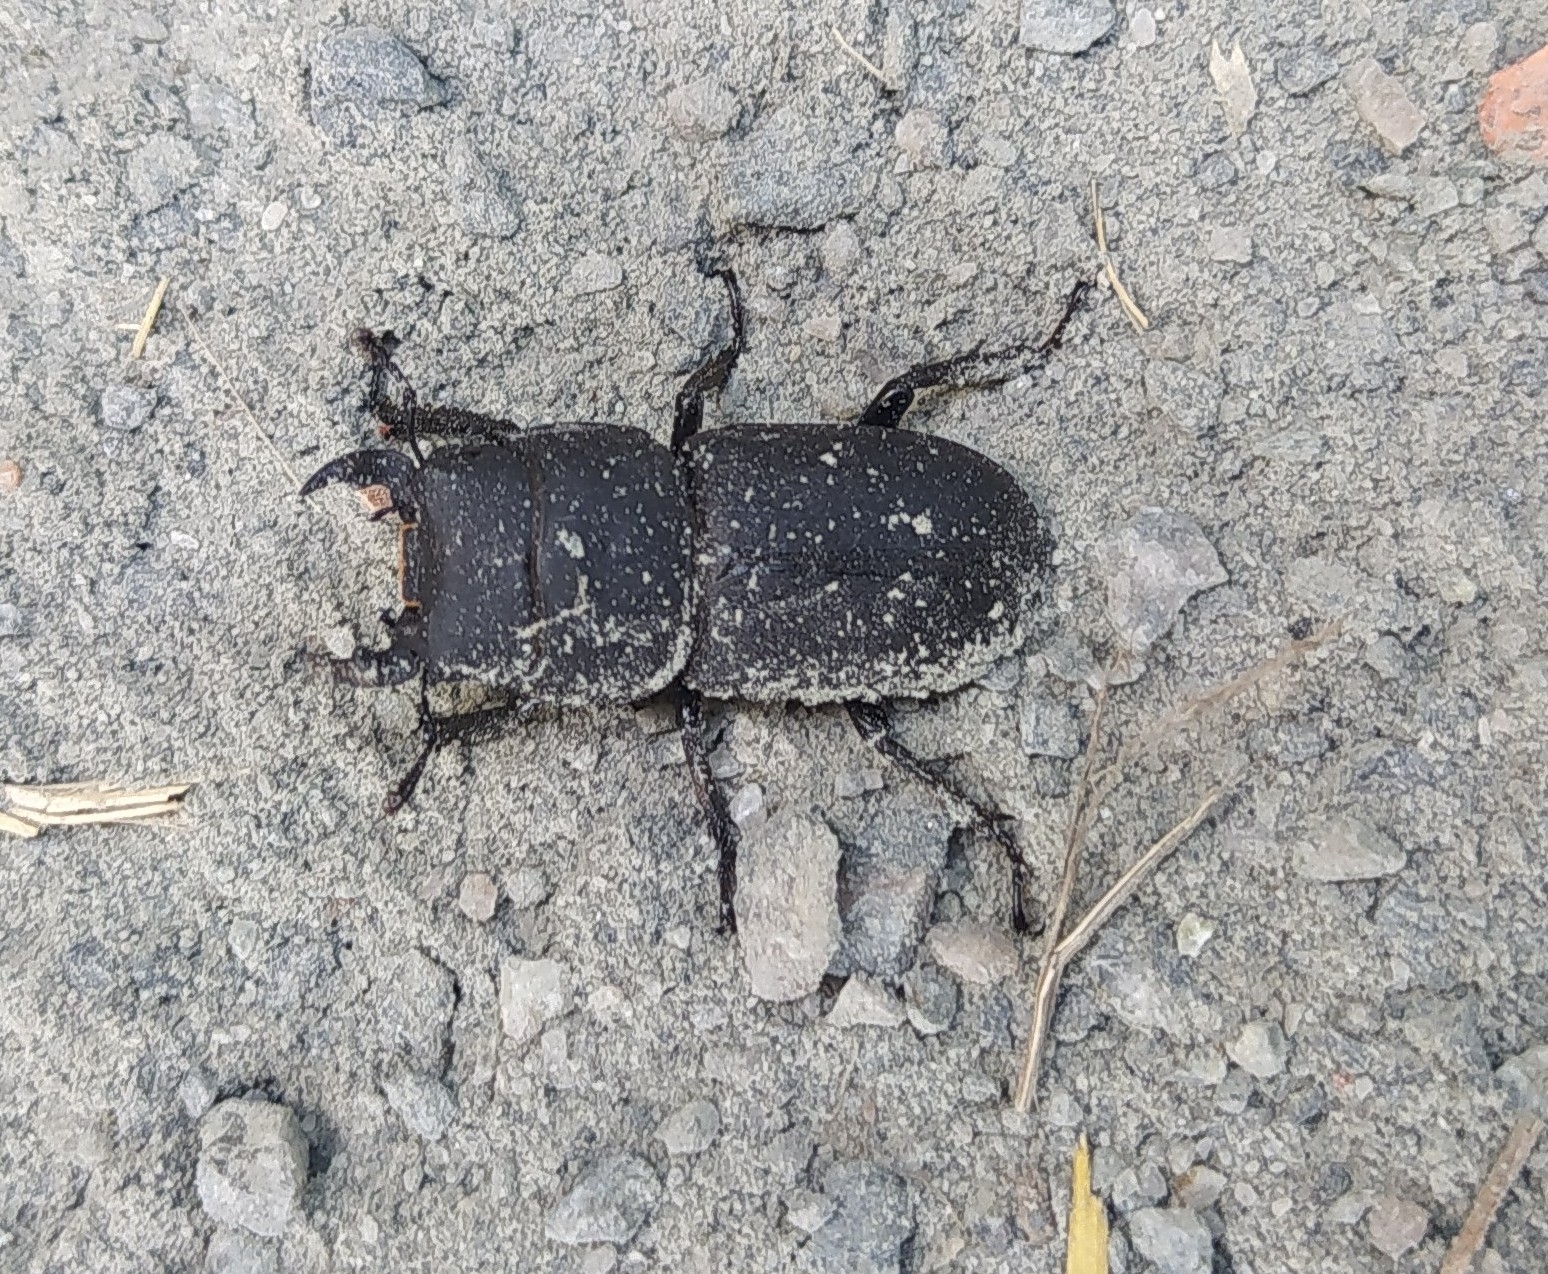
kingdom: Animalia
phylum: Arthropoda
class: Insecta
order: Coleoptera
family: Lucanidae
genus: Dorcus
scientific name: Dorcus parallelipipedus
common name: Lesser stag beetle
